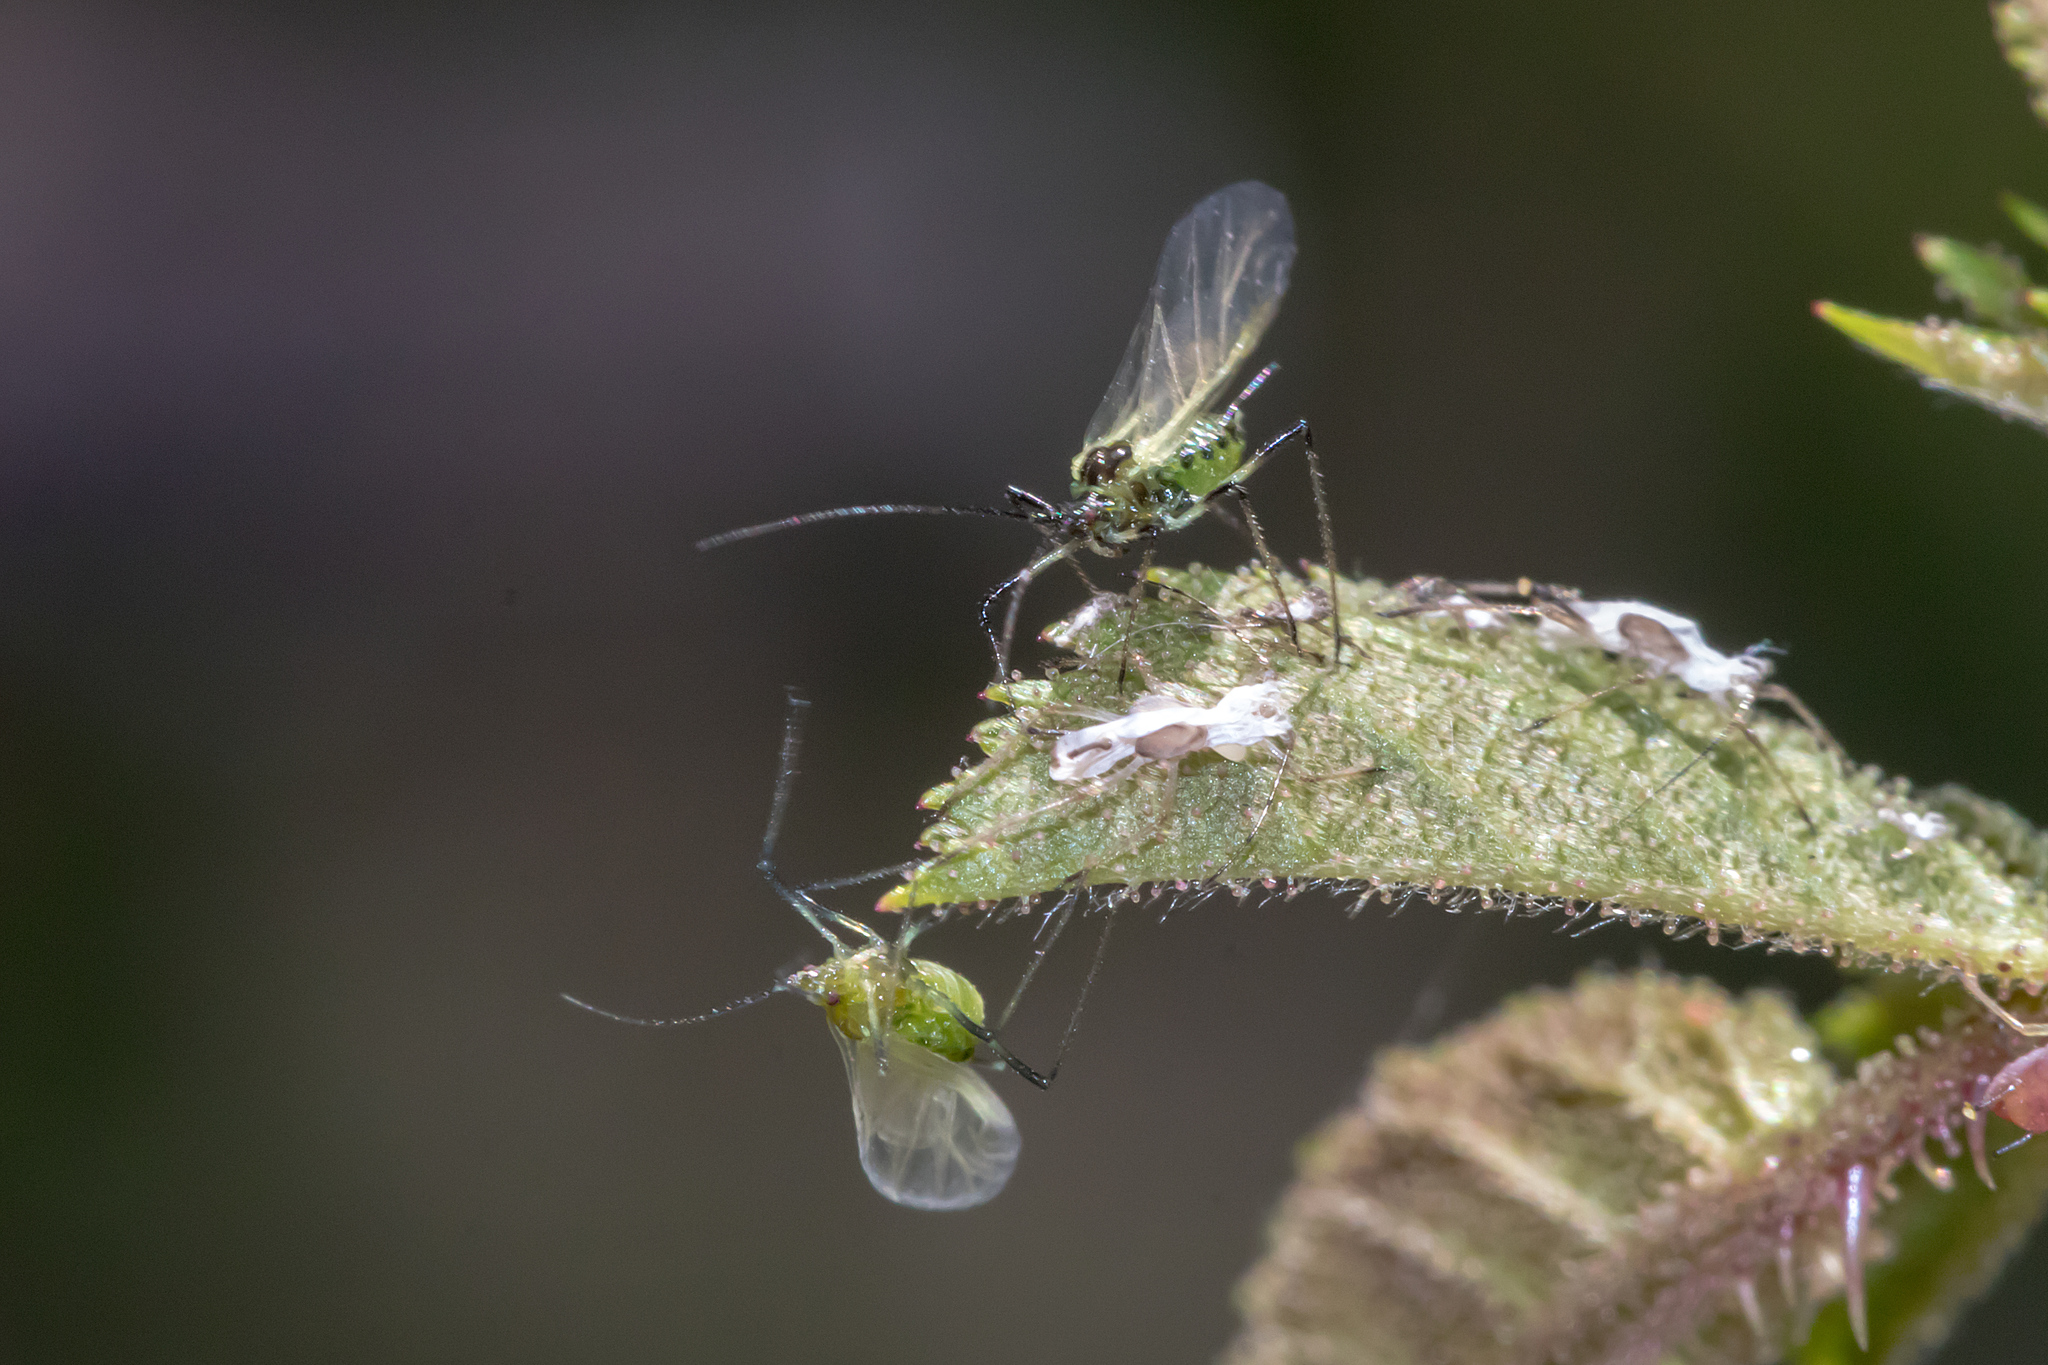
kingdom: Animalia
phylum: Arthropoda
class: Insecta
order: Hemiptera
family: Aphididae
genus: Macrosiphum
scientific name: Macrosiphum rosae
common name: Rose aphid
